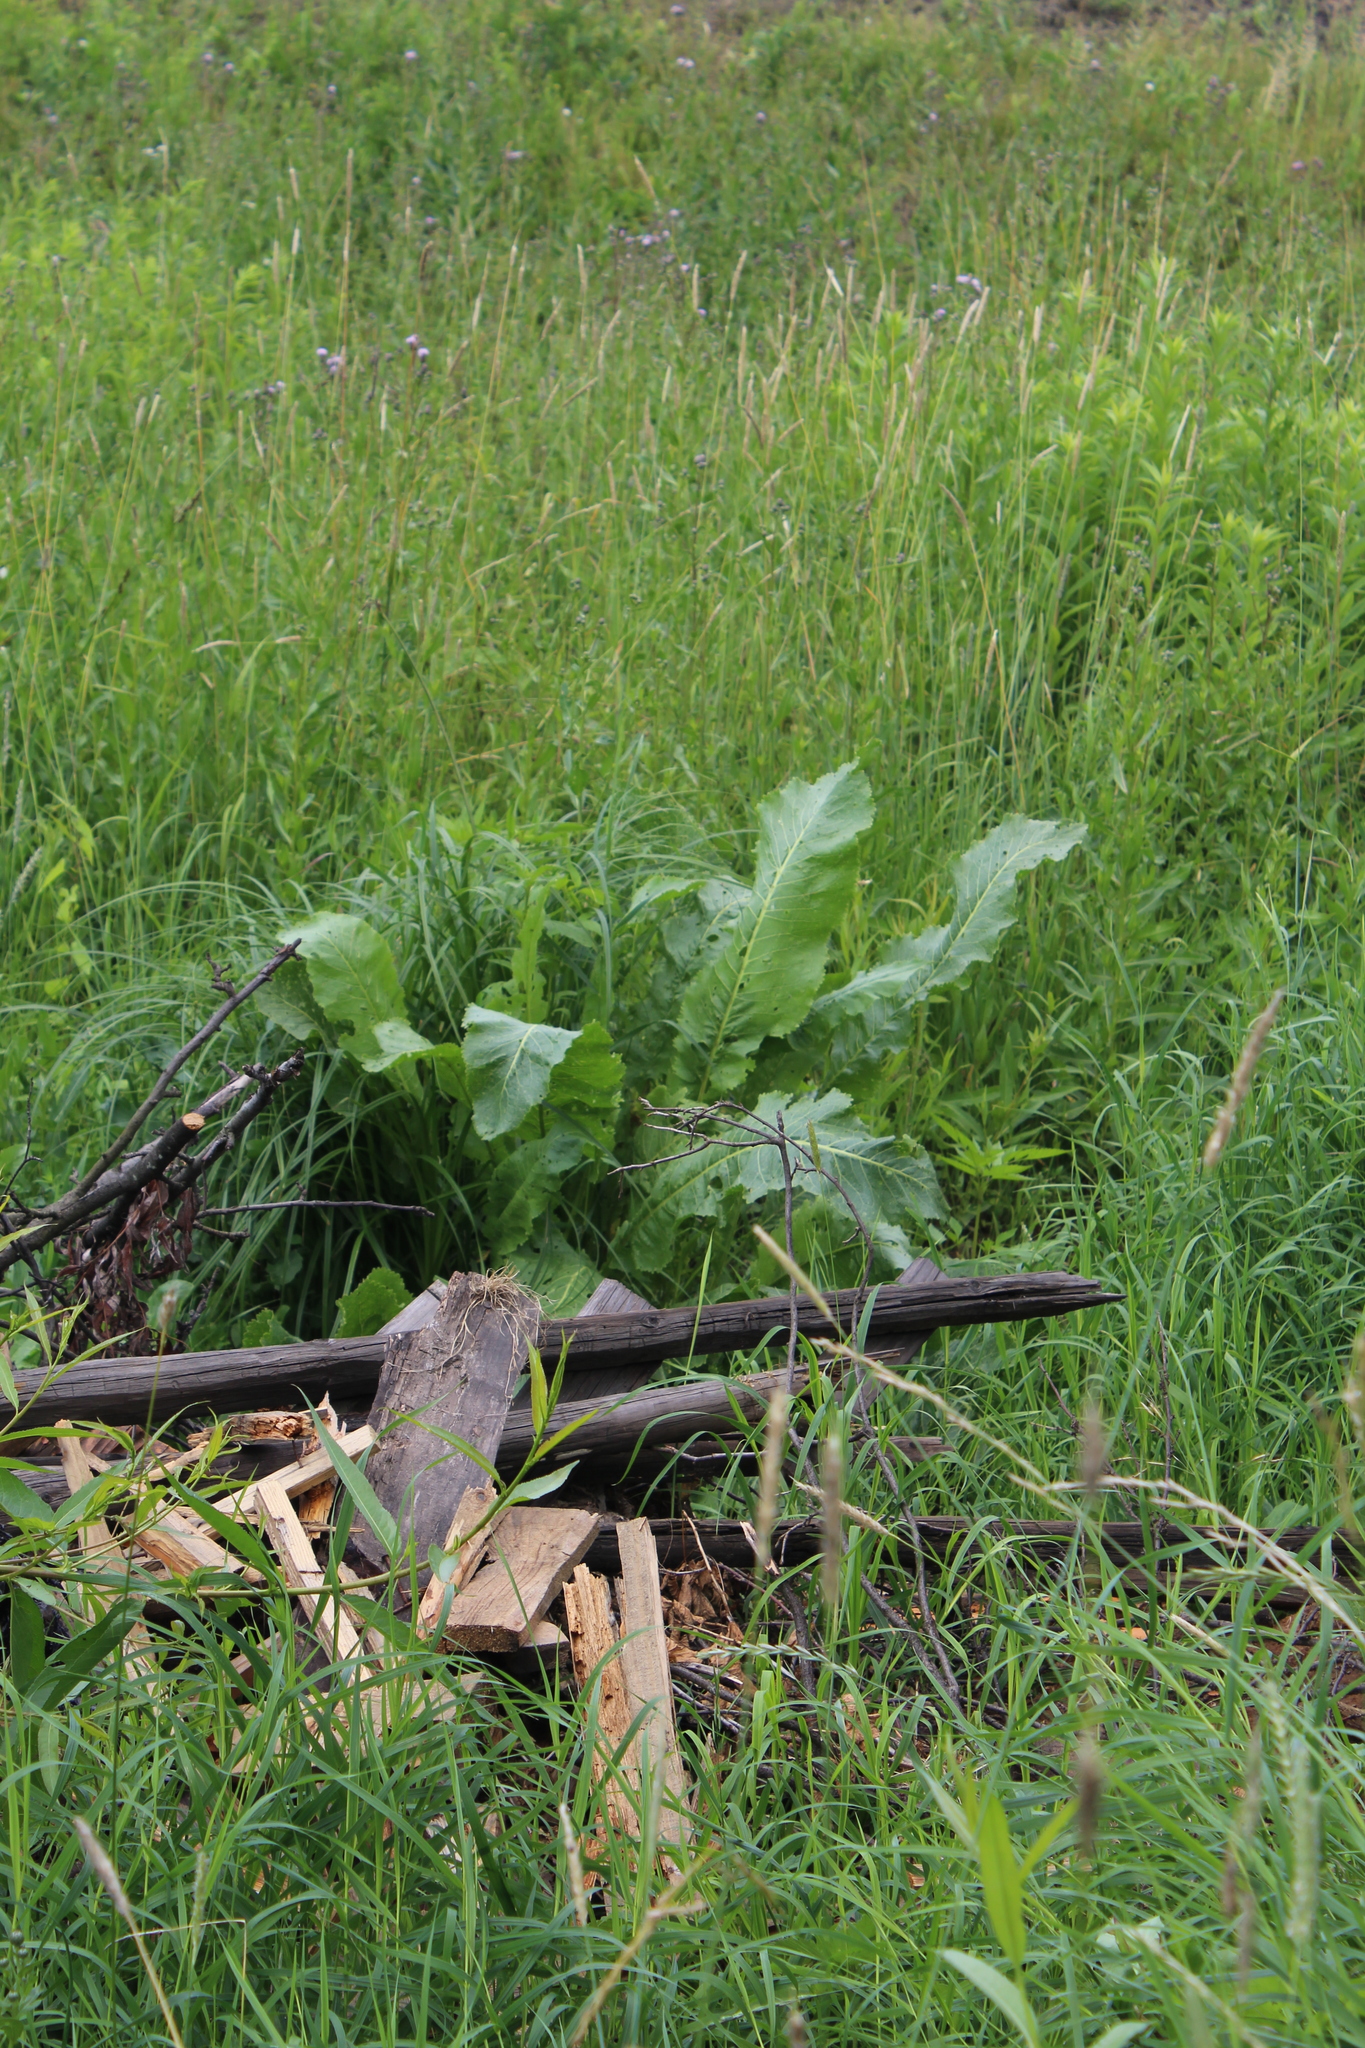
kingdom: Plantae
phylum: Tracheophyta
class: Magnoliopsida
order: Brassicales
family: Brassicaceae
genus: Armoracia
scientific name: Armoracia rusticana
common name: Horseradish
